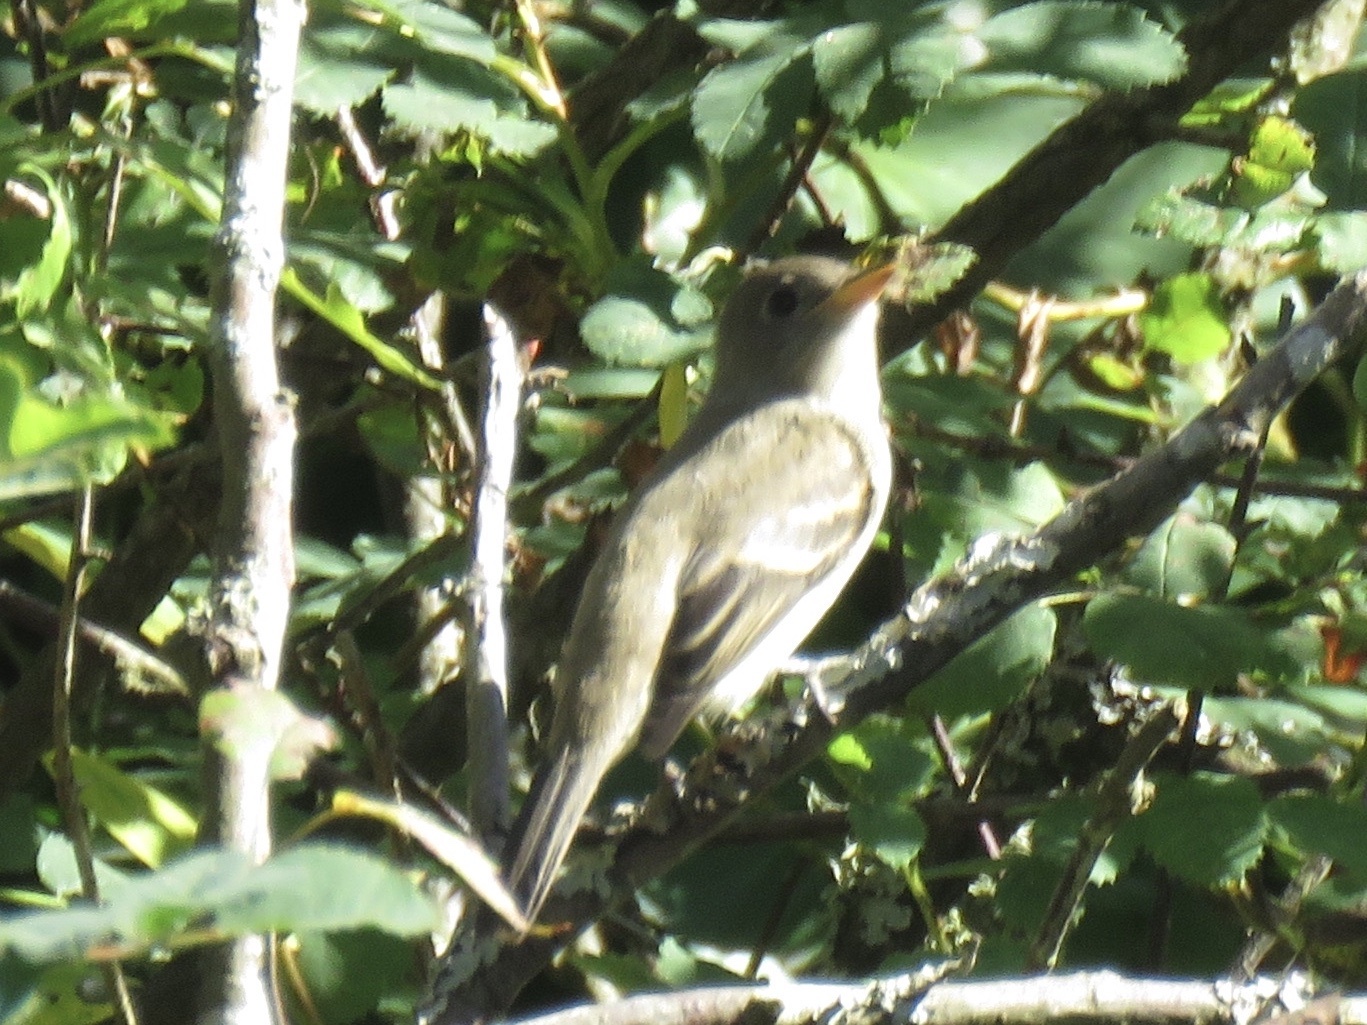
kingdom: Animalia
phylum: Chordata
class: Aves
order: Passeriformes
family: Tyrannidae
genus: Empidonax
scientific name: Empidonax traillii
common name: Willow flycatcher
